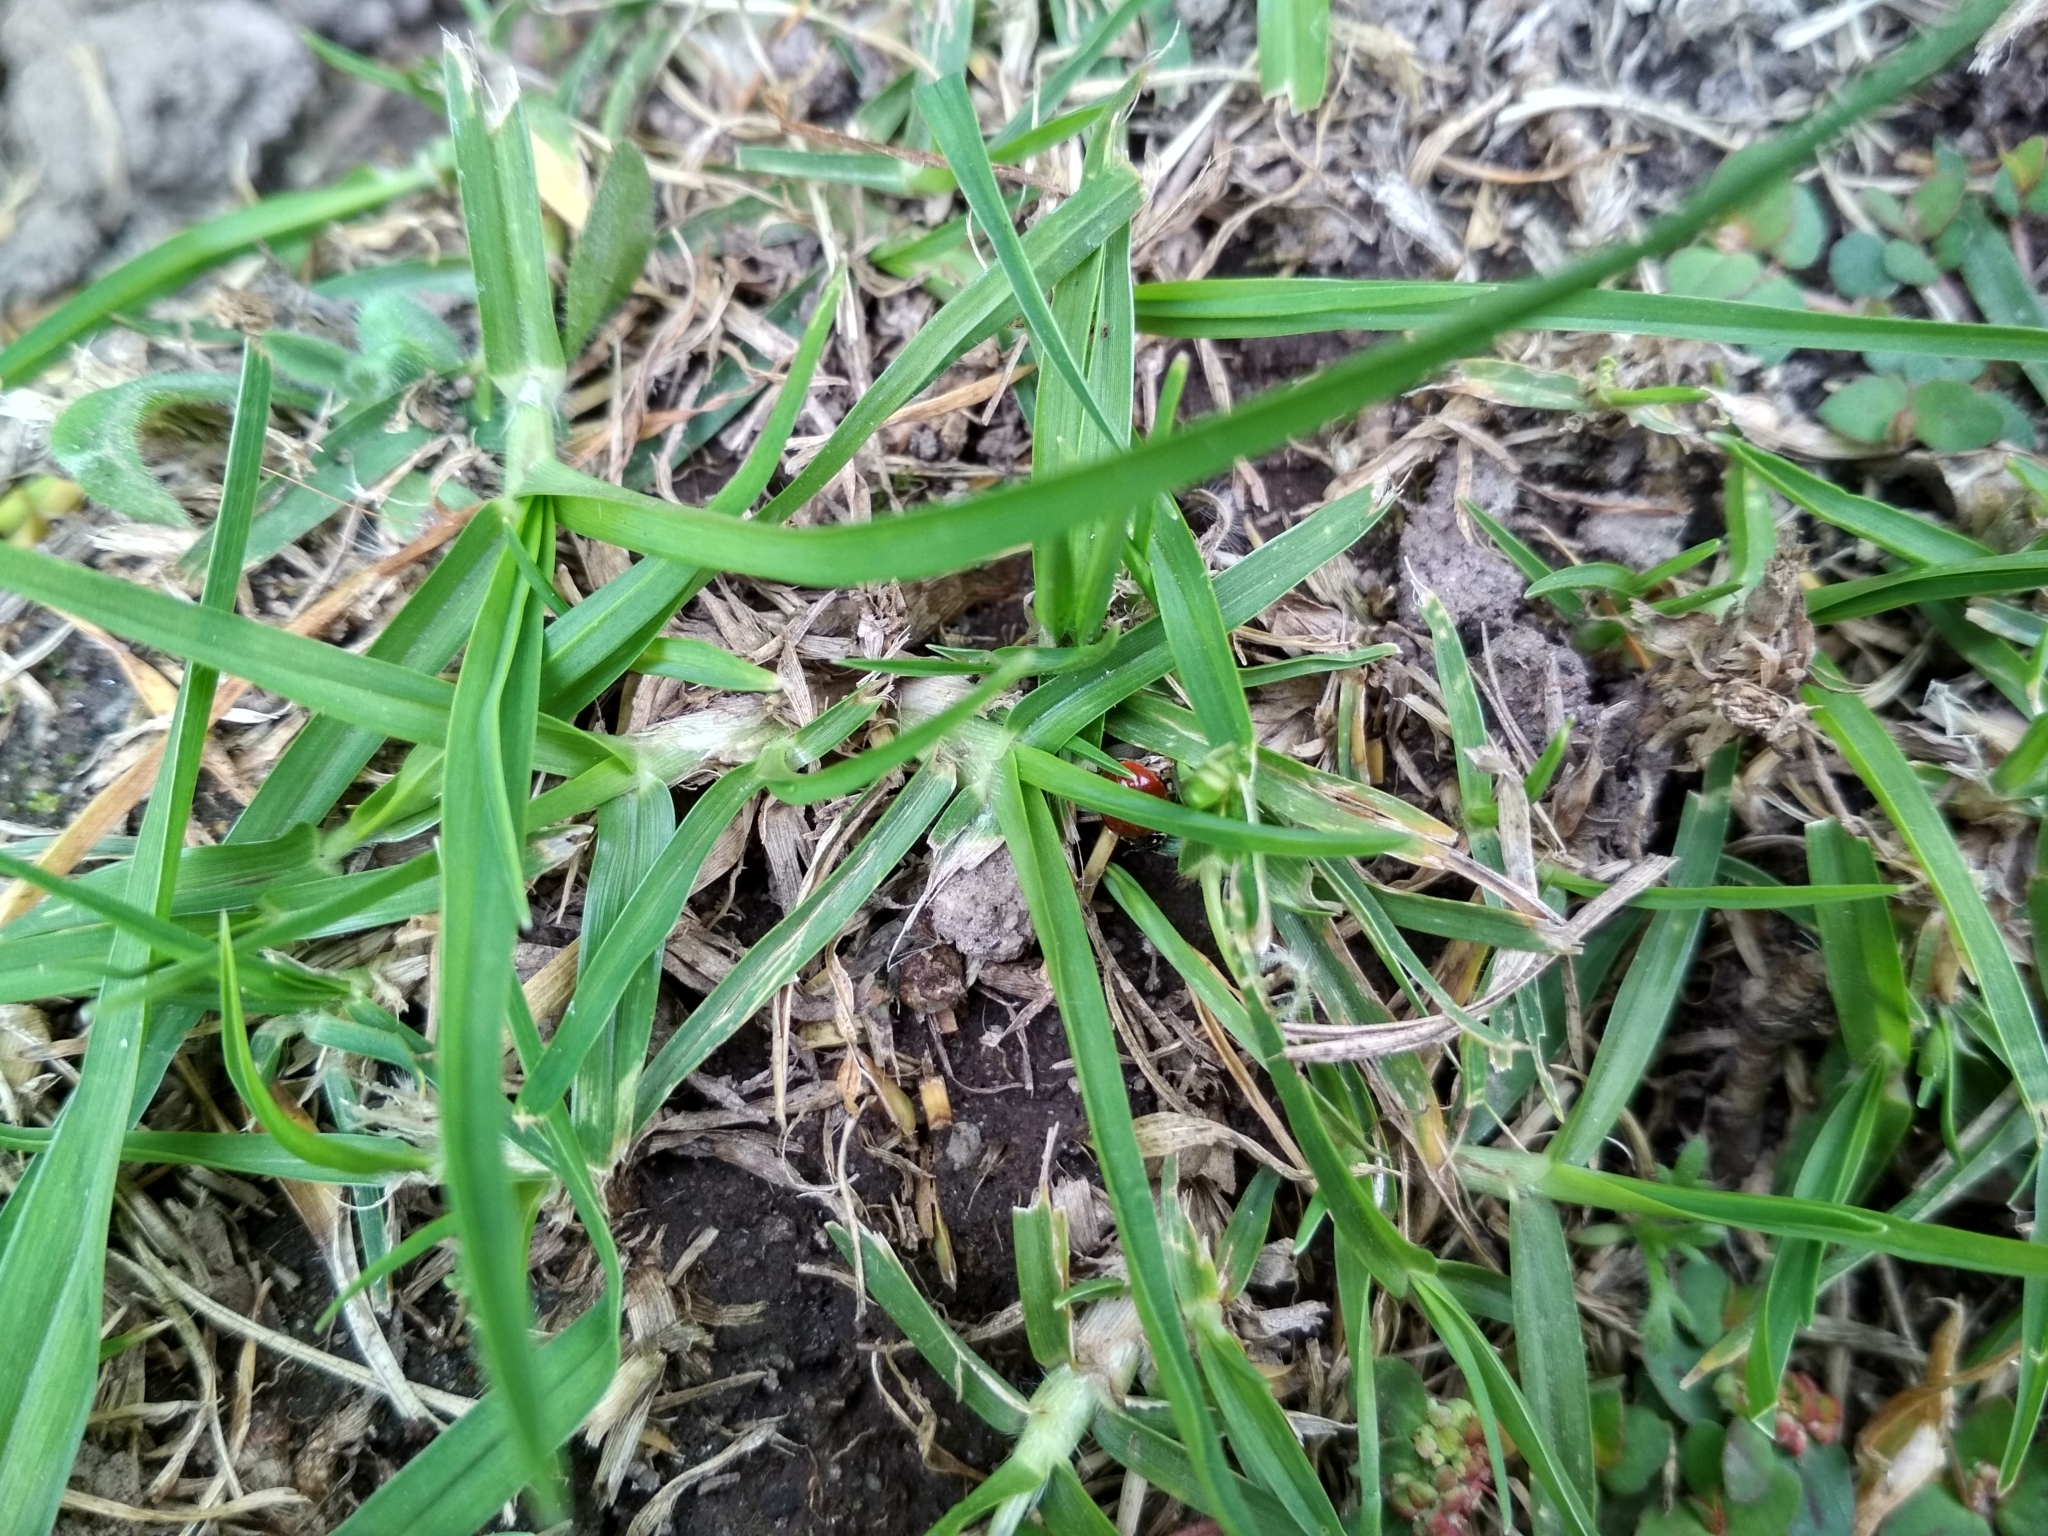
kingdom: Animalia
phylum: Arthropoda
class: Insecta
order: Coleoptera
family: Coccinellidae
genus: Cycloneda
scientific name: Cycloneda sanguinea
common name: Ladybird beetle
